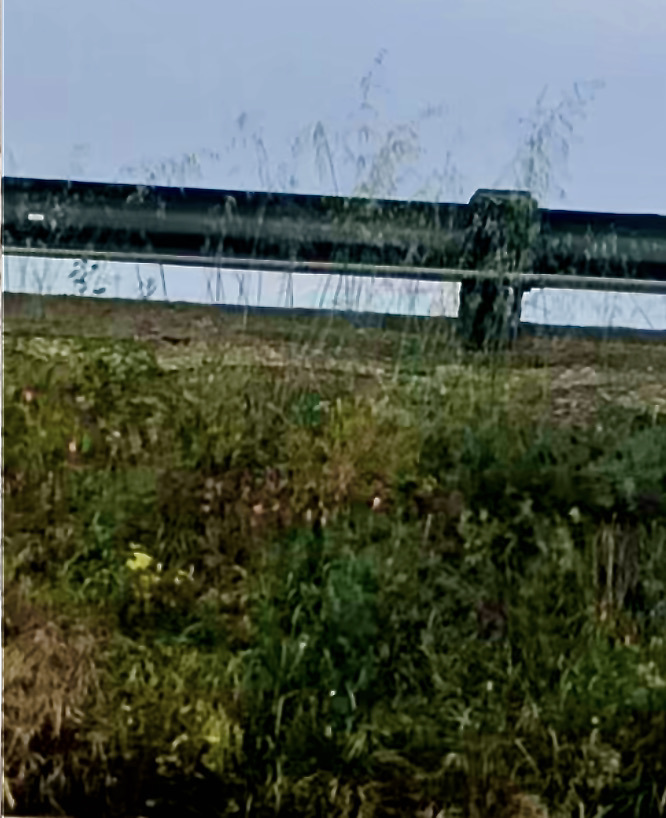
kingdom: Plantae
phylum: Tracheophyta
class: Magnoliopsida
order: Ranunculales
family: Papaveraceae
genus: Eschscholzia
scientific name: Eschscholzia californica
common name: California poppy
